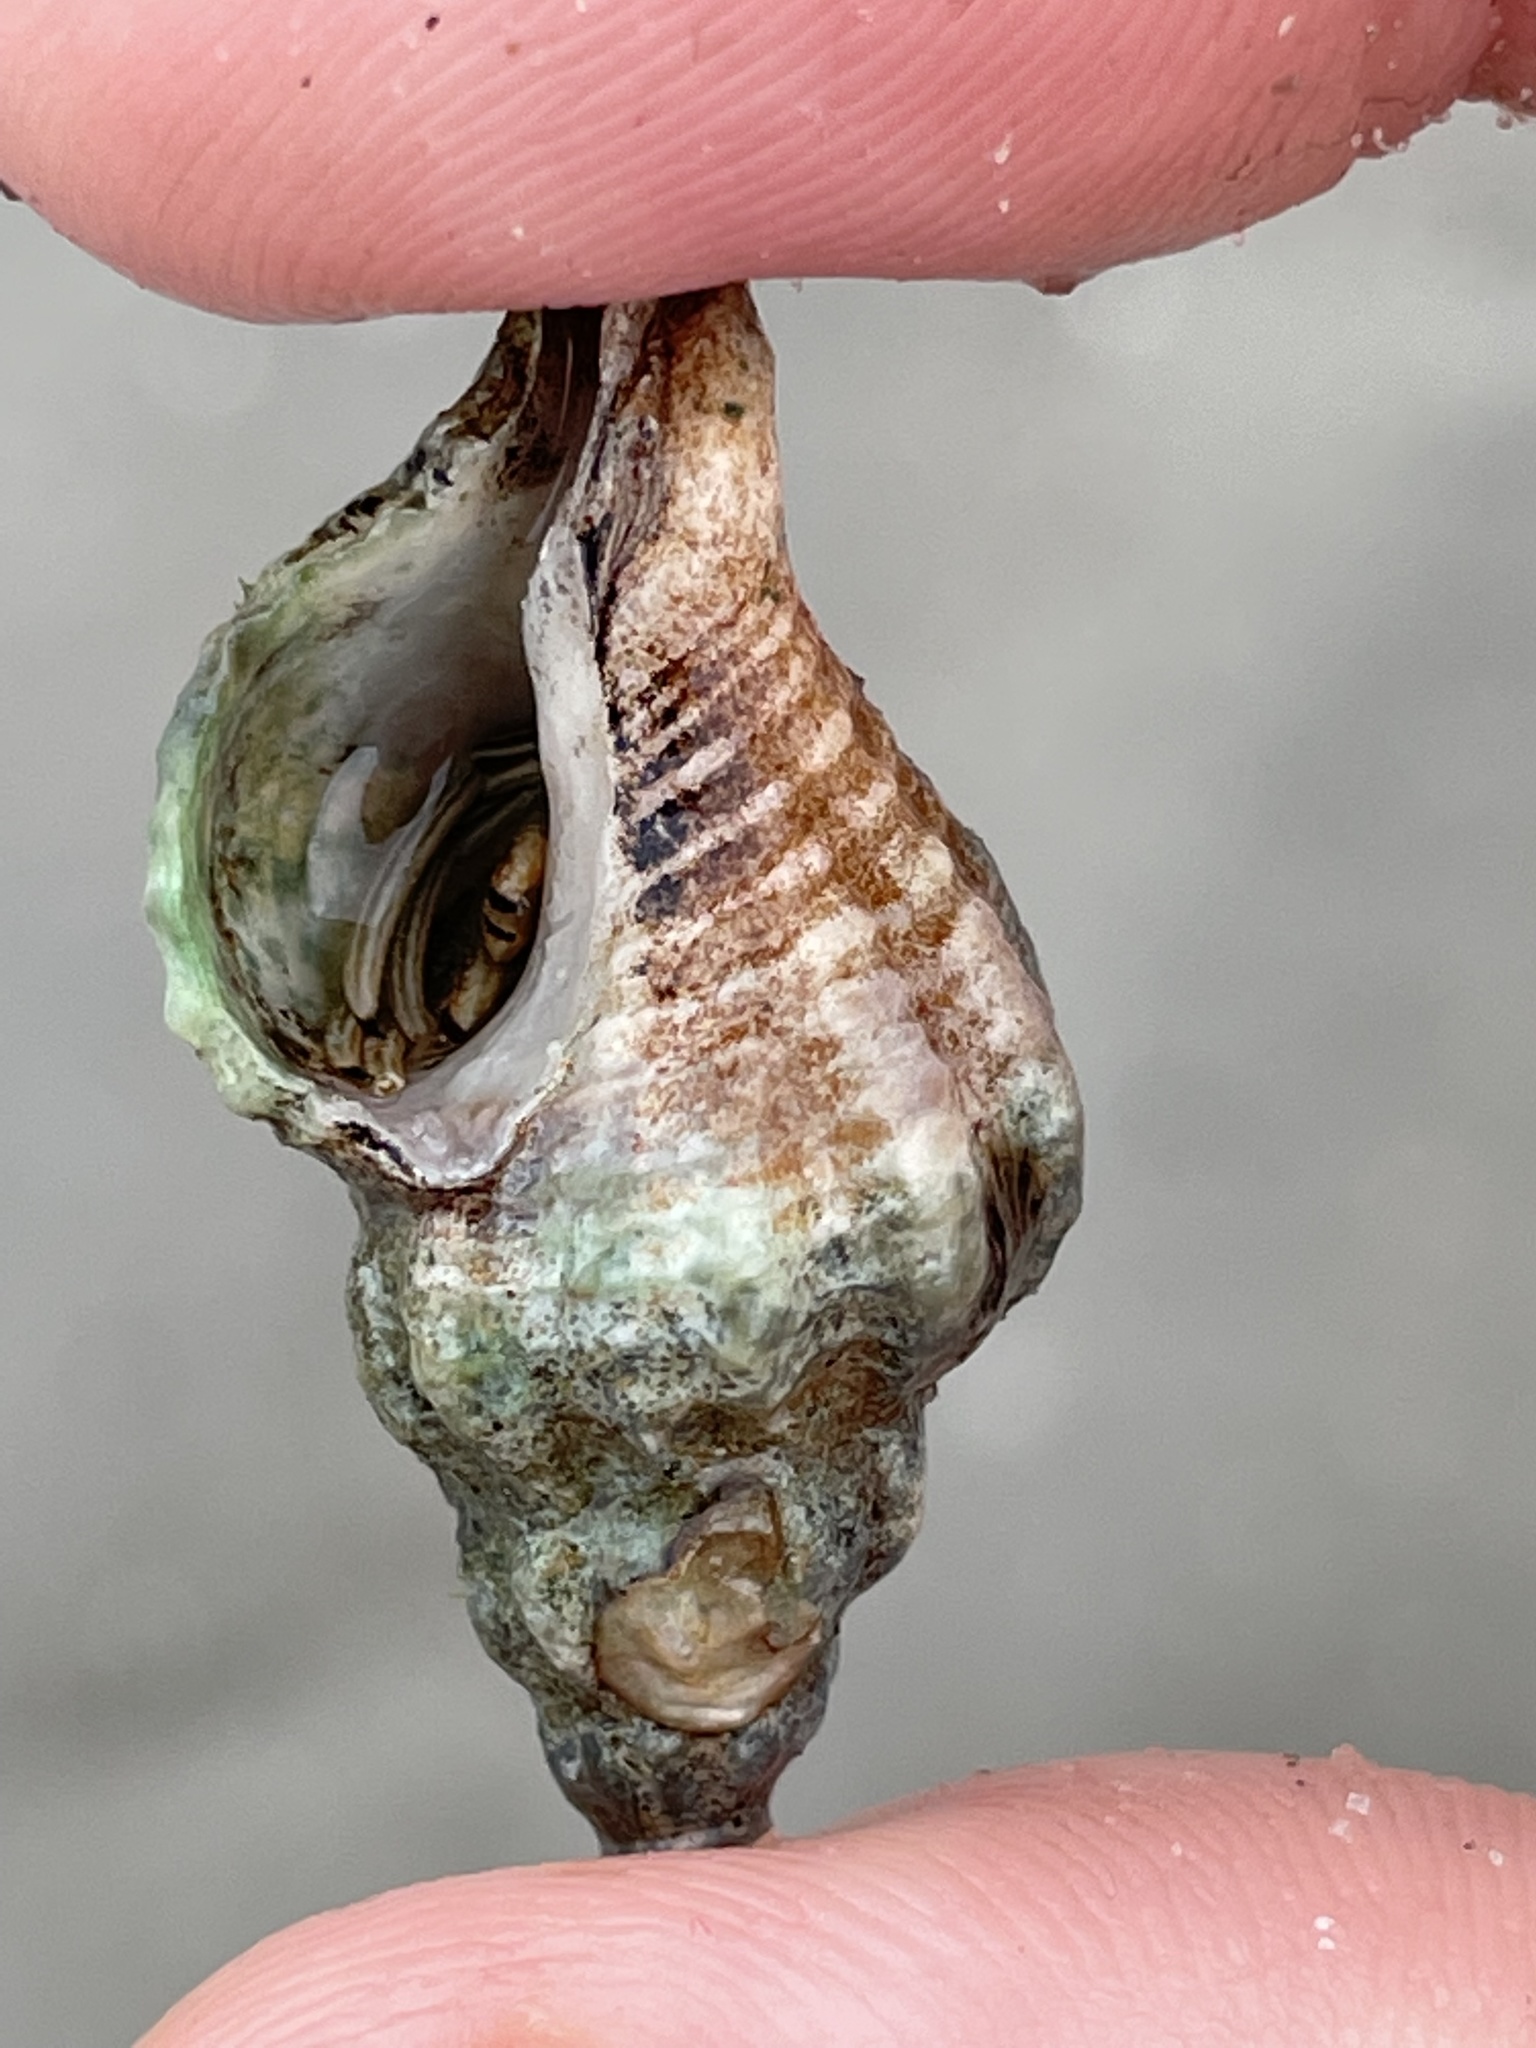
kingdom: Animalia
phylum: Mollusca
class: Gastropoda
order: Neogastropoda
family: Muricidae
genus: Urosalpinx
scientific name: Urosalpinx cinerea
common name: American sting winkle
